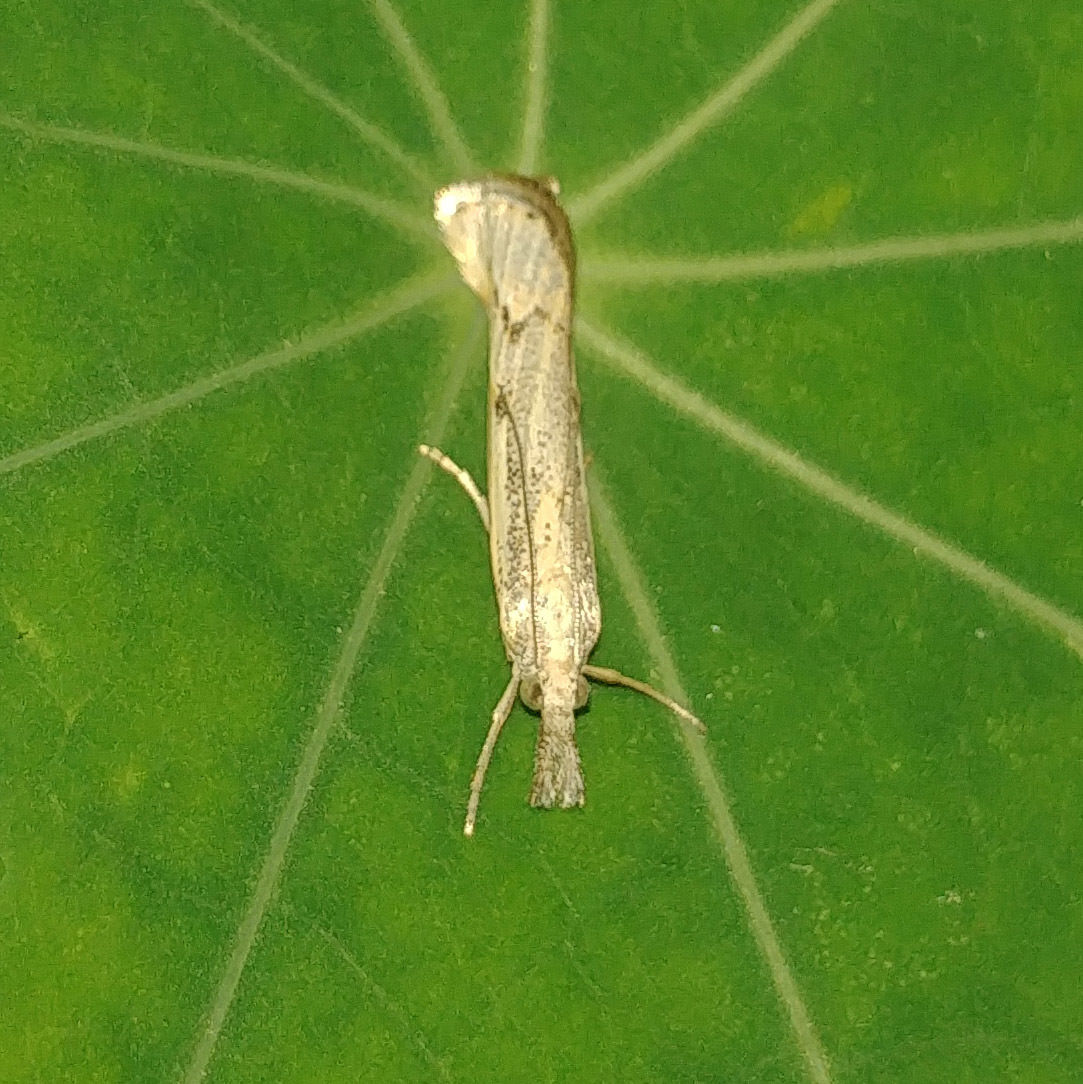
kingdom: Animalia
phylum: Arthropoda
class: Insecta
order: Lepidoptera
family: Crambidae
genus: Agriphila
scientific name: Agriphila geniculea
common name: Elbow-stripe grass-veneer
